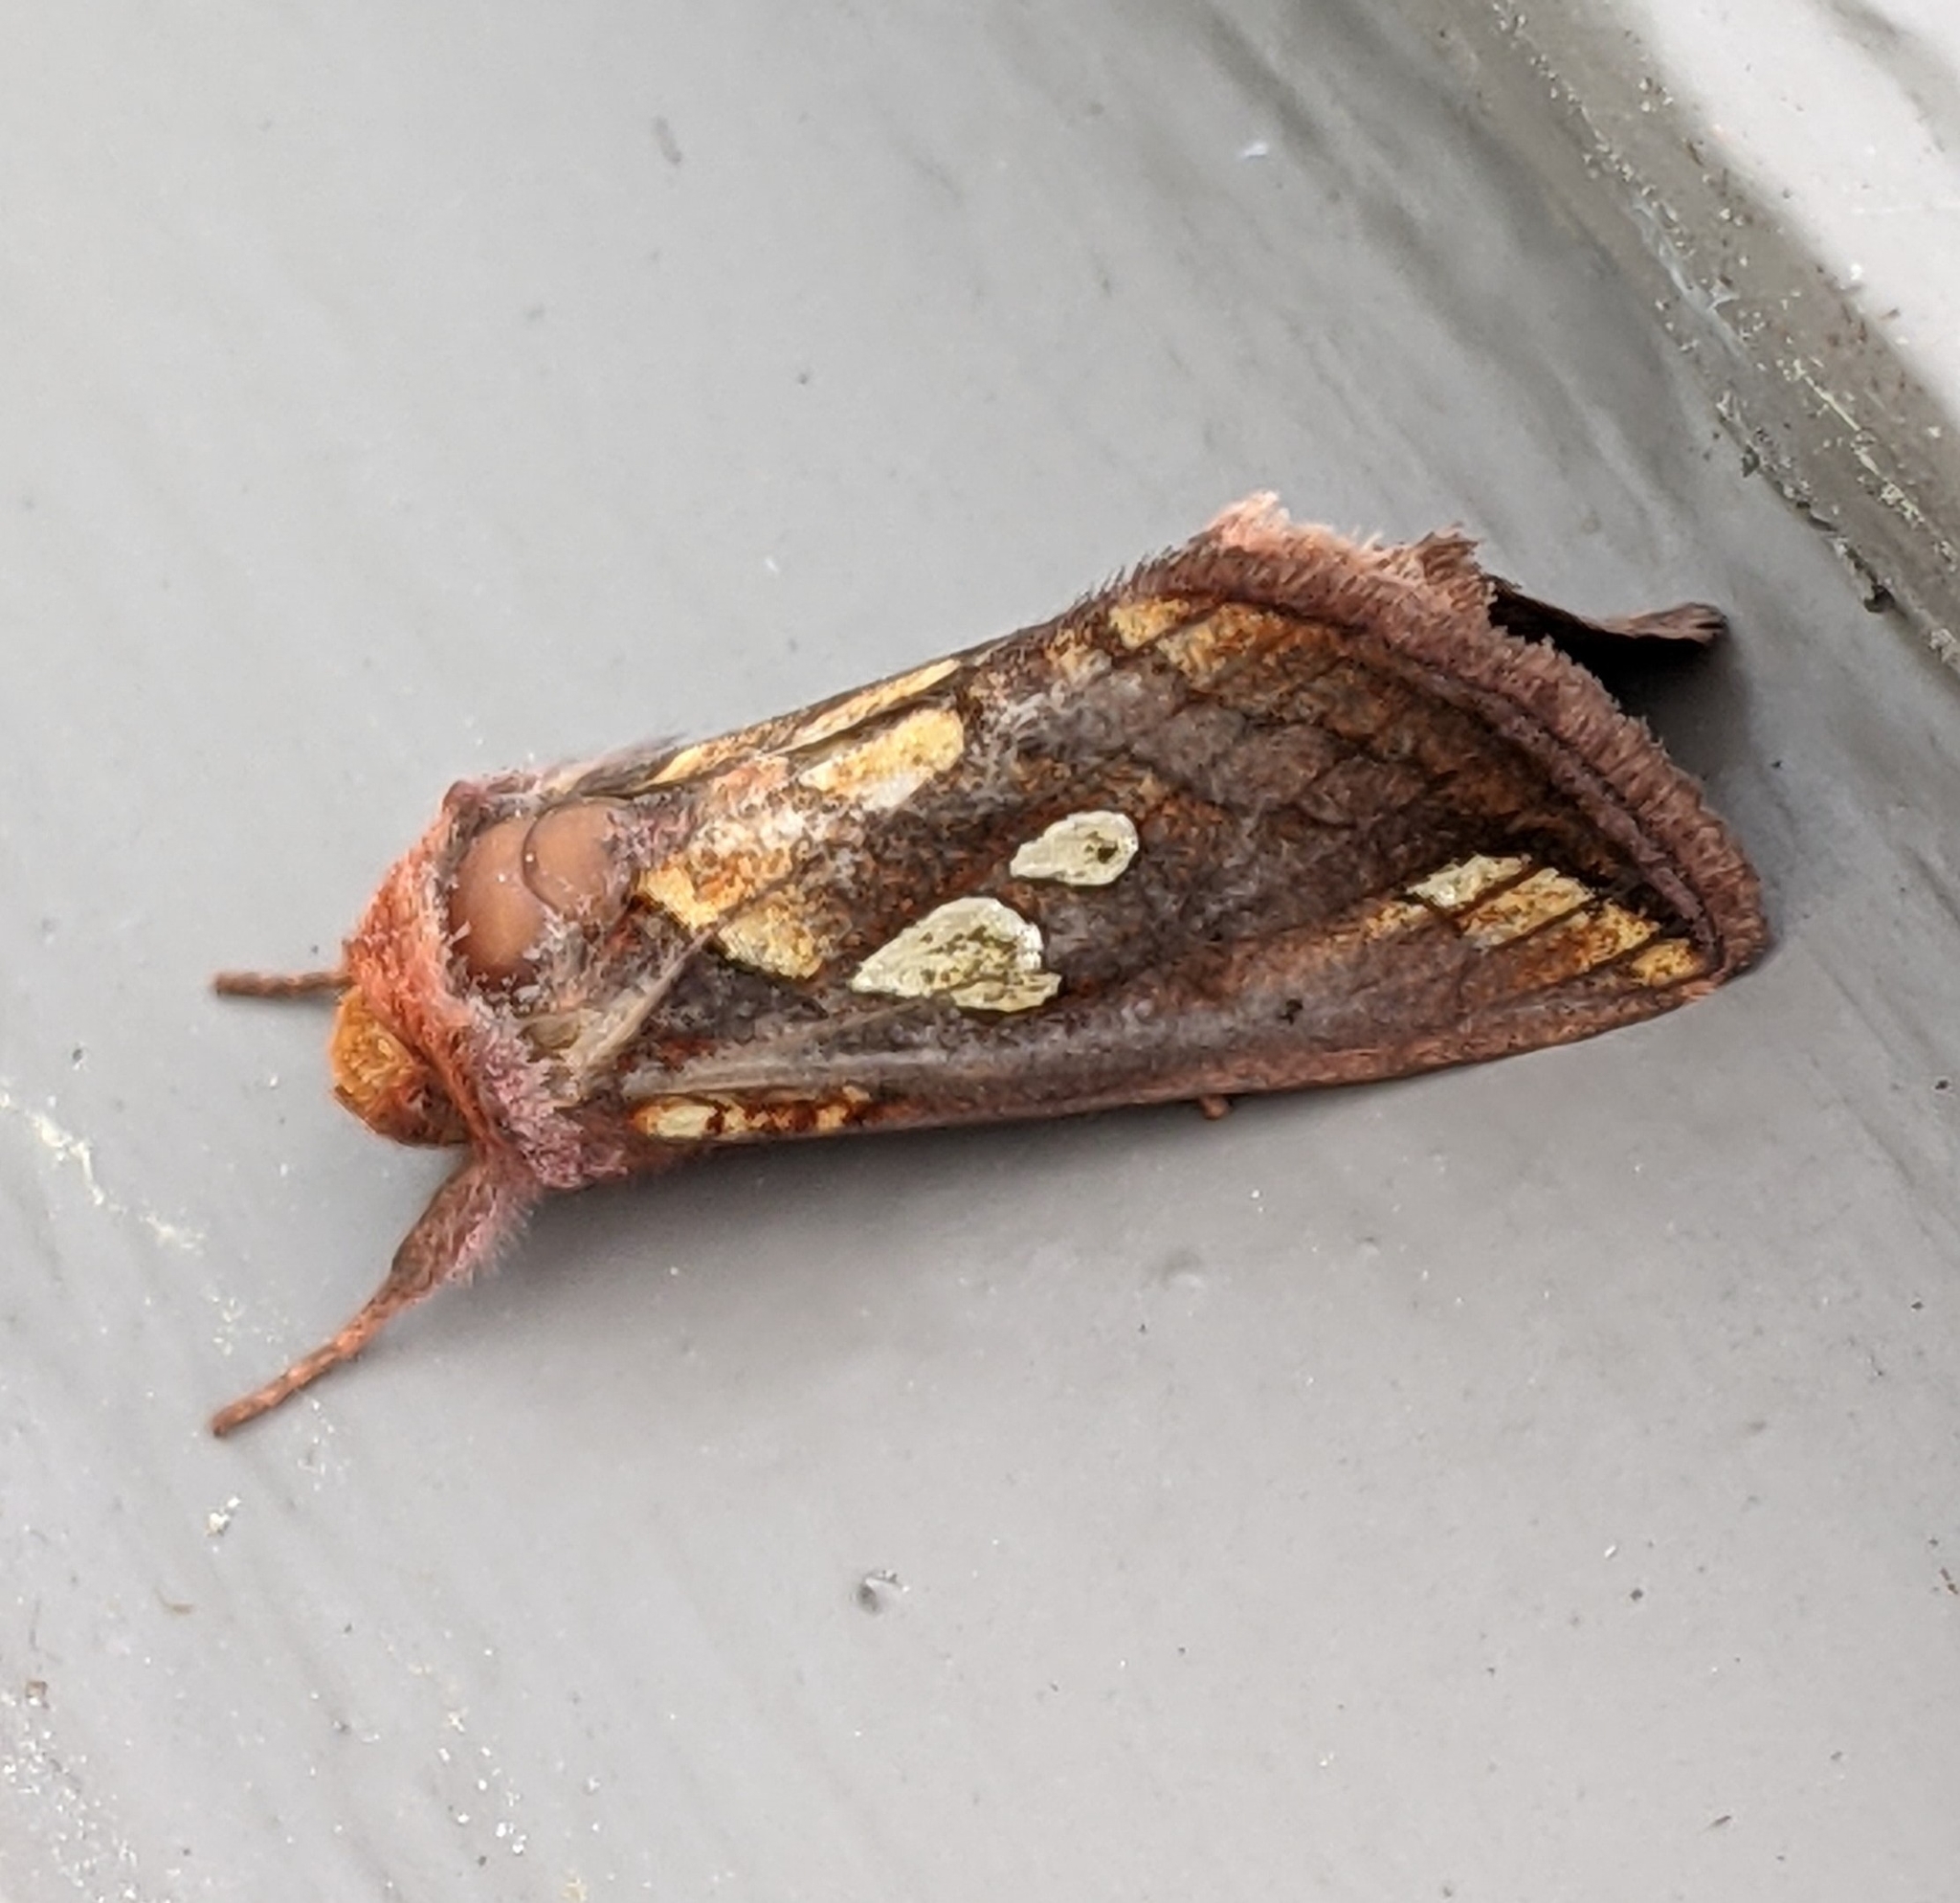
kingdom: Animalia
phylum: Arthropoda
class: Insecta
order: Lepidoptera
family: Noctuidae
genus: Plusia
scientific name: Plusia nichollae
